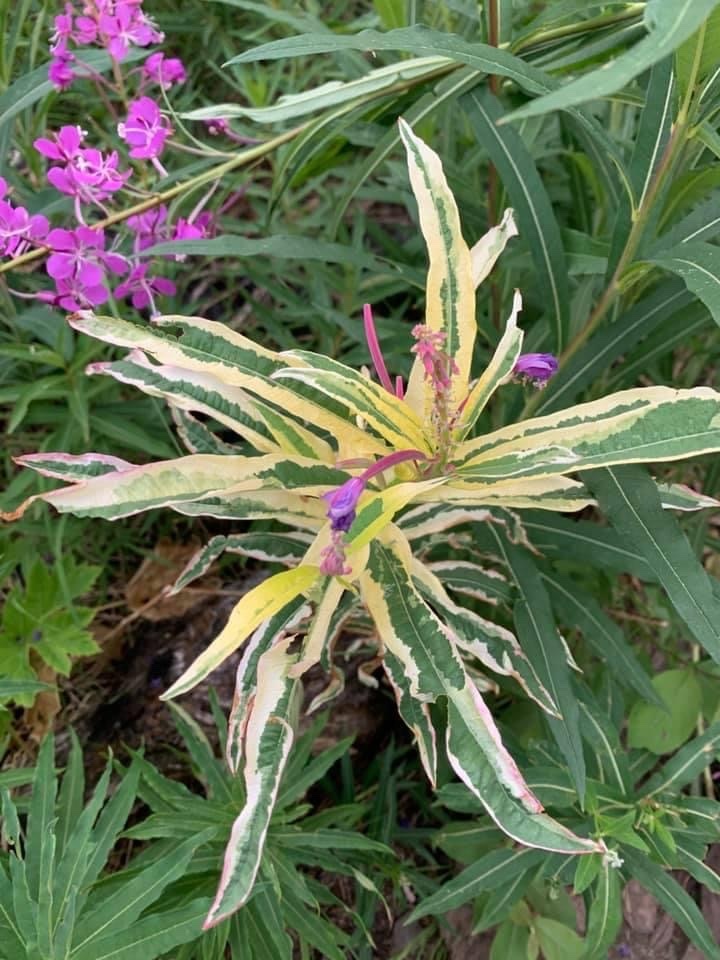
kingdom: Plantae
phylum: Tracheophyta
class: Magnoliopsida
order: Myrtales
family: Onagraceae
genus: Chamaenerion
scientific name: Chamaenerion angustifolium
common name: Fireweed
